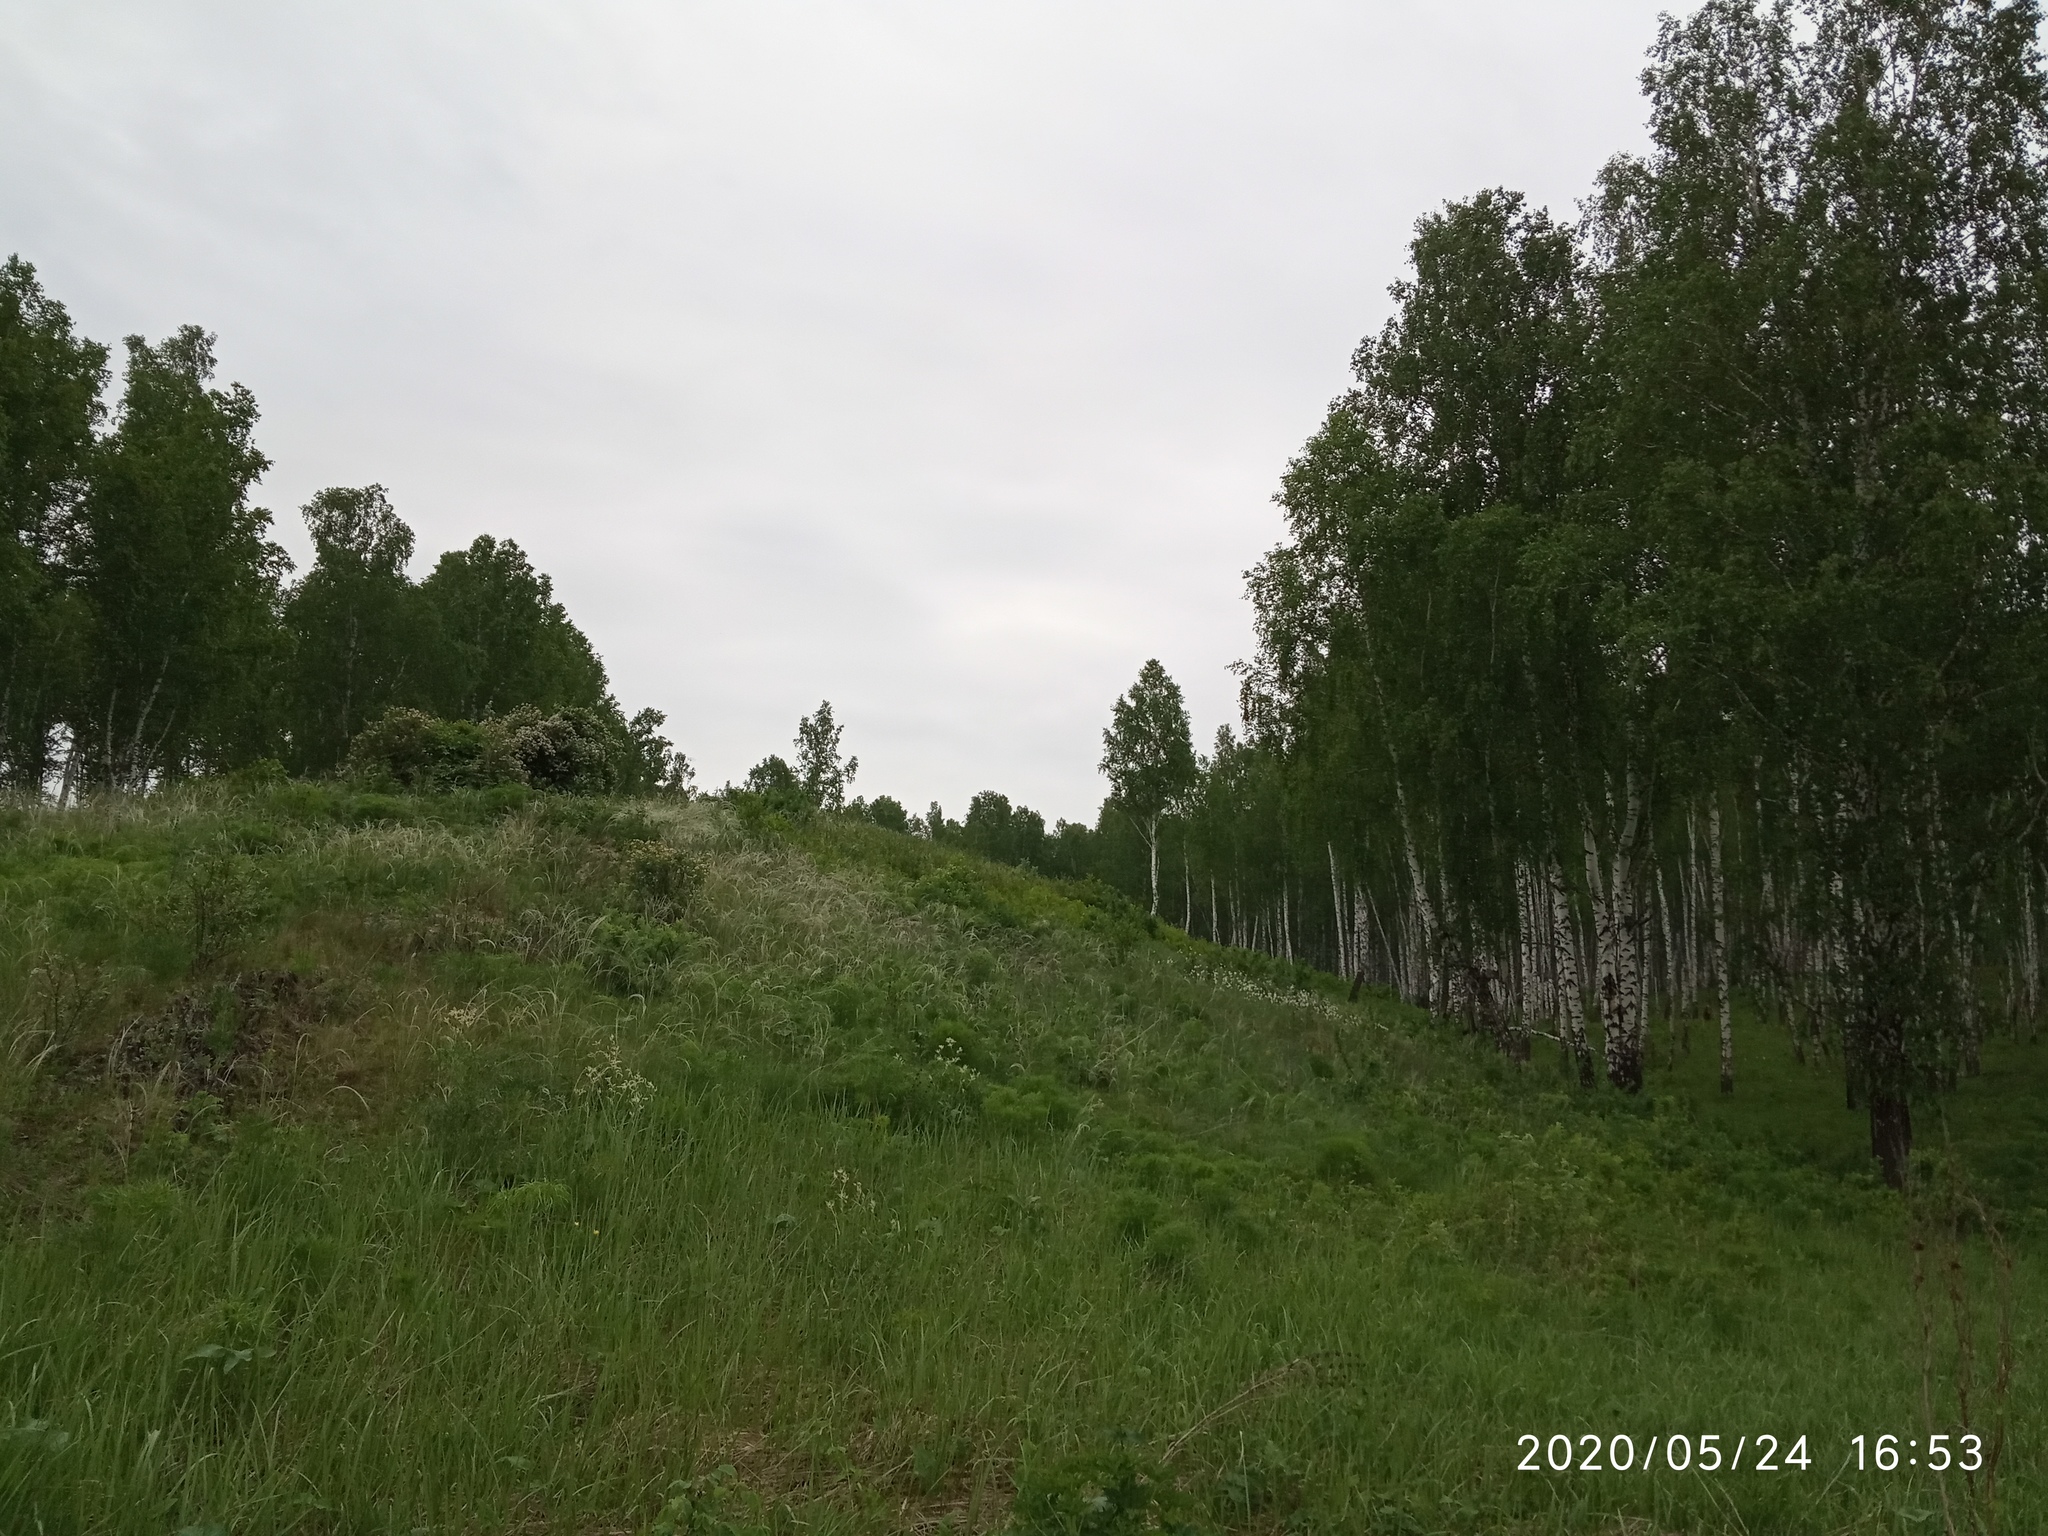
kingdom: Plantae
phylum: Tracheophyta
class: Magnoliopsida
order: Boraginales
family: Boraginaceae
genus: Onosma
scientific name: Onosma simplicissima
